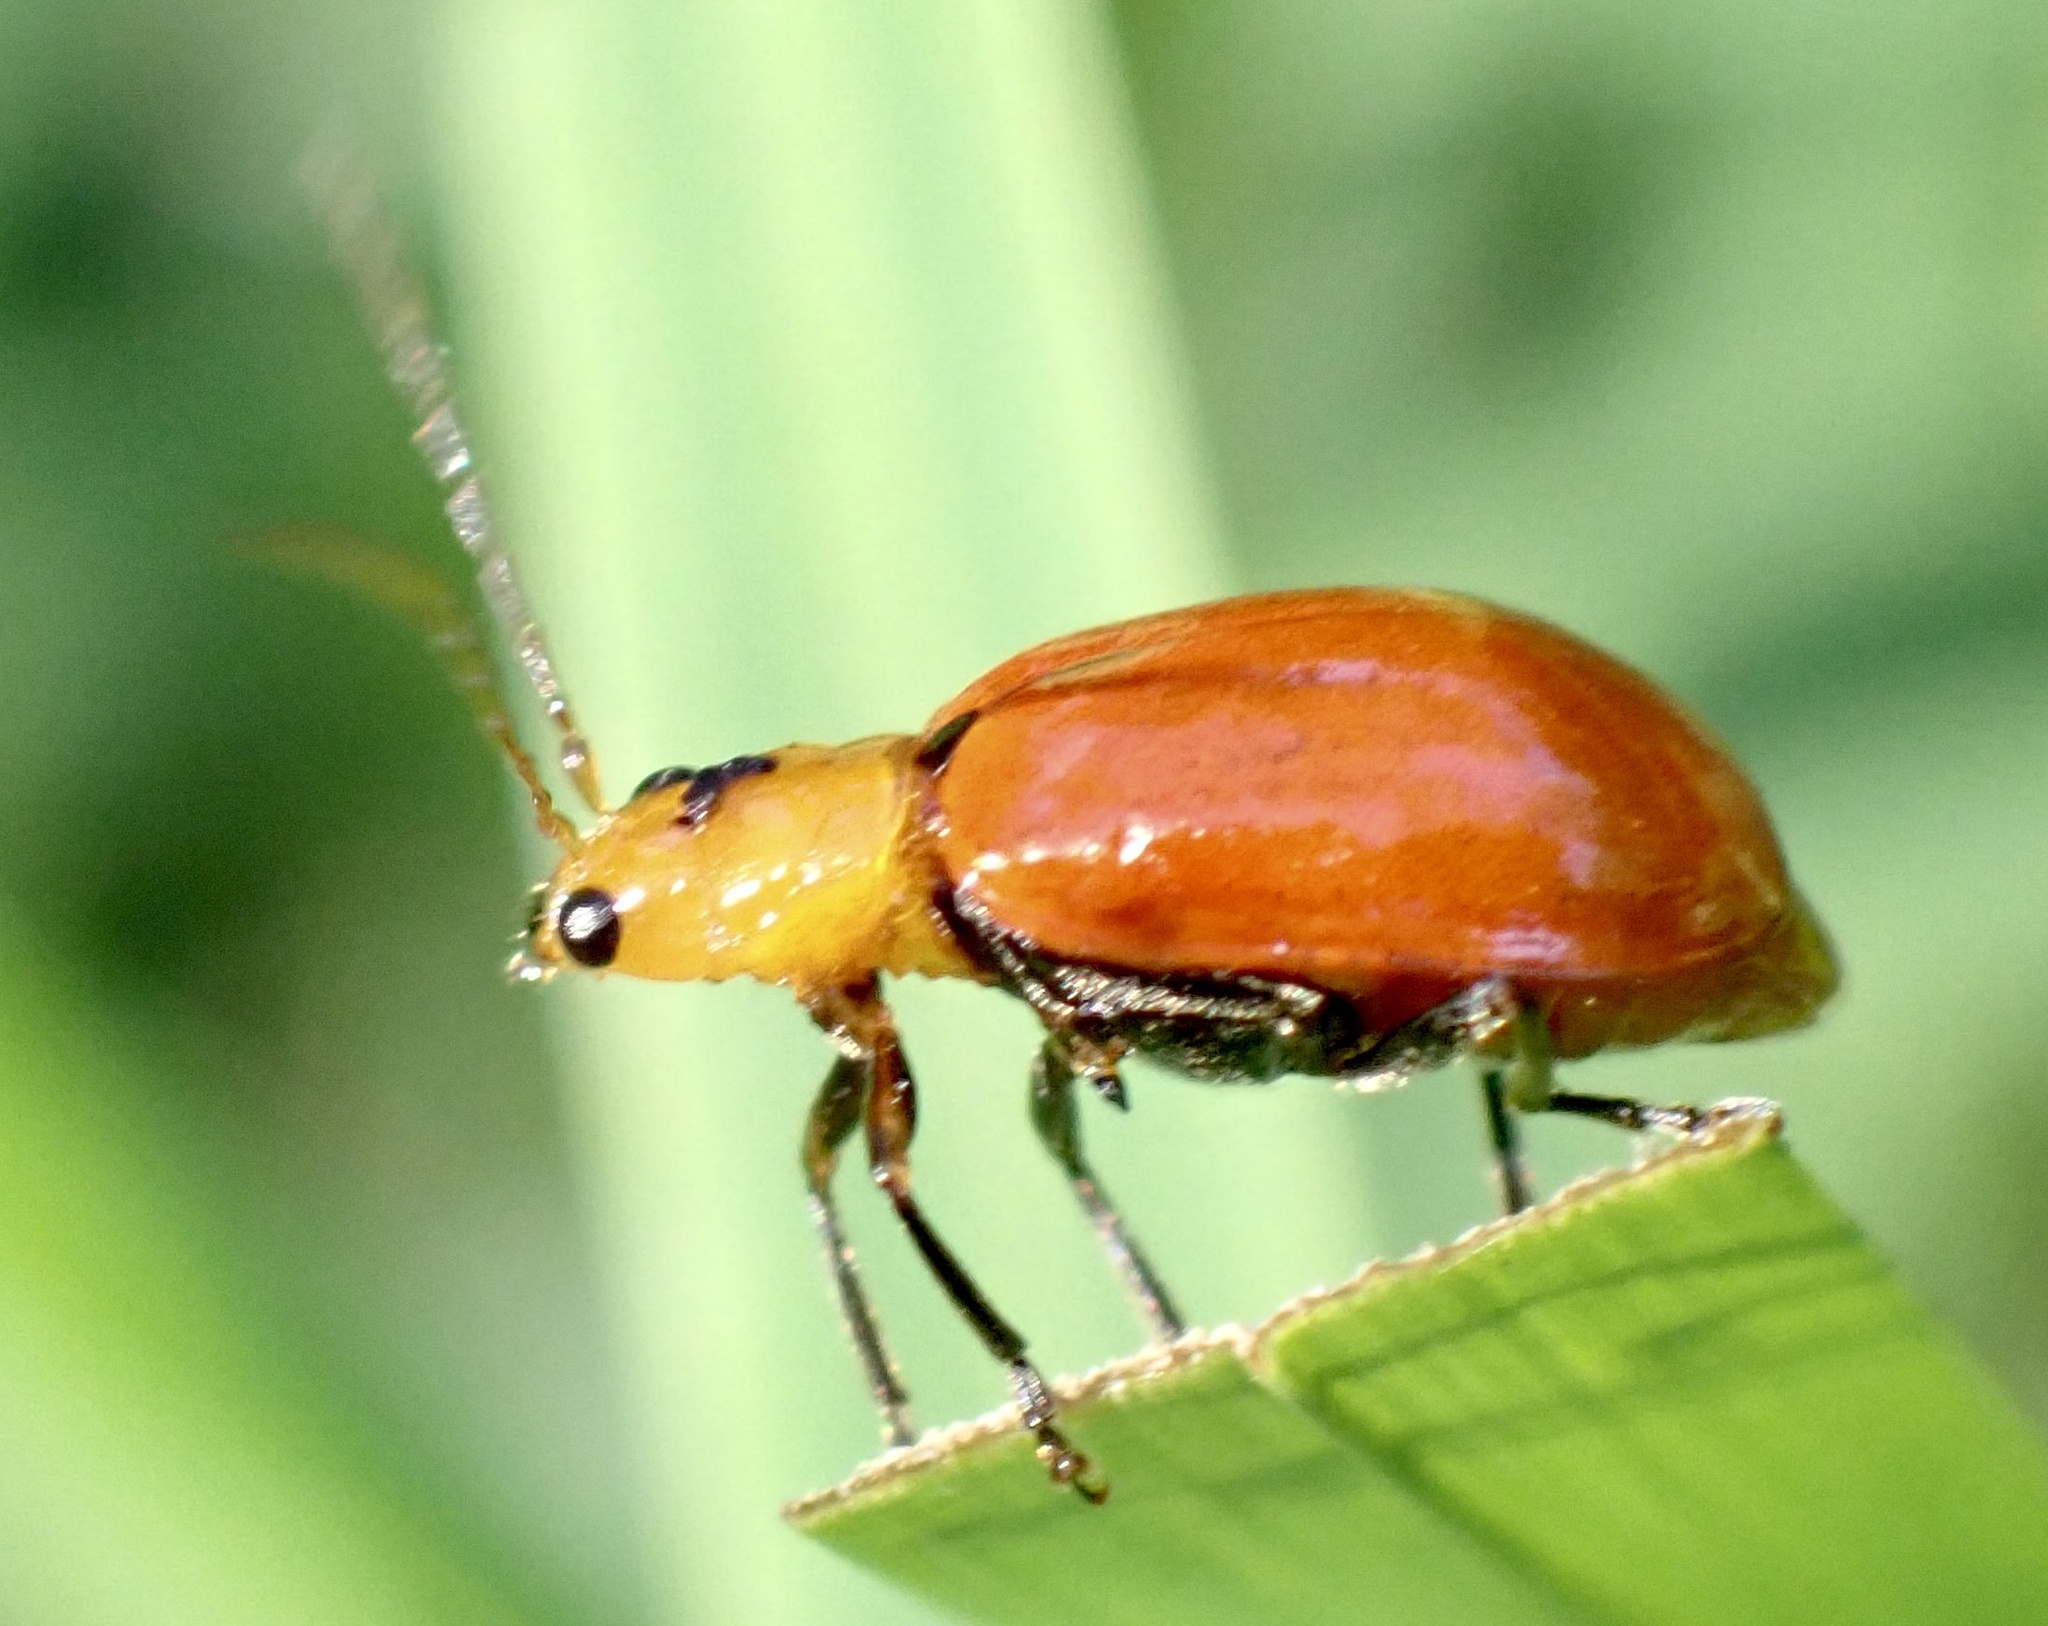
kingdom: Animalia
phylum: Arthropoda
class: Insecta
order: Coleoptera
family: Chrysomelidae
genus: Leptaulaca
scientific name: Leptaulaca
